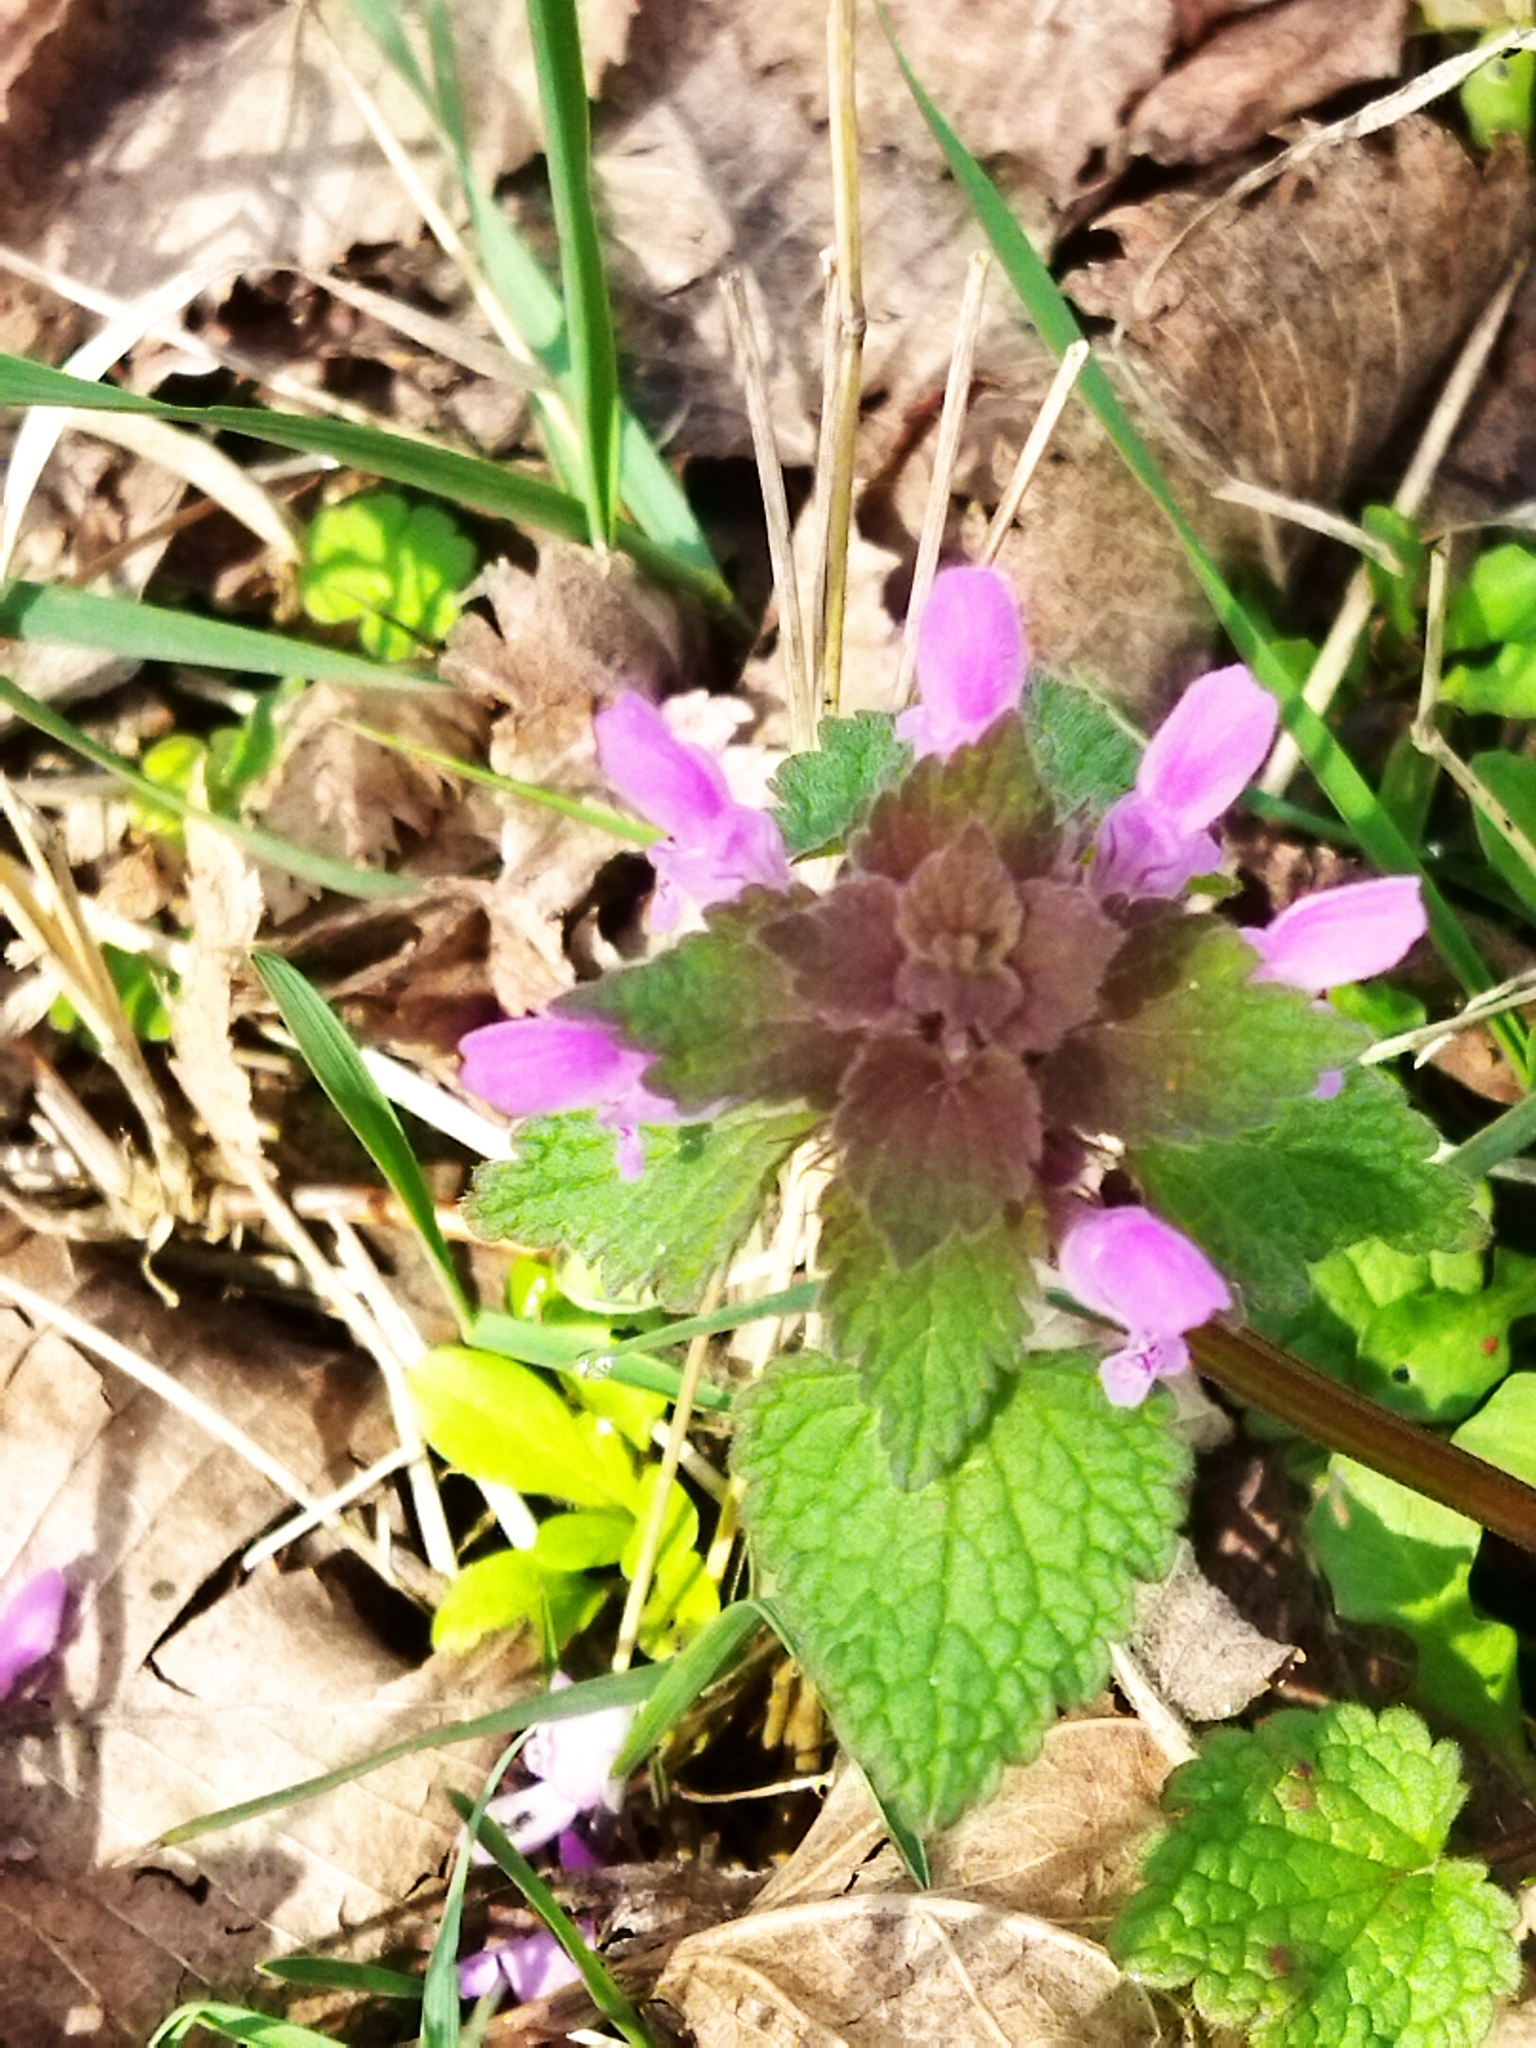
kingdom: Plantae
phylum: Tracheophyta
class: Magnoliopsida
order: Lamiales
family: Lamiaceae
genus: Lamium
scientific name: Lamium purpureum
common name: Red dead-nettle
